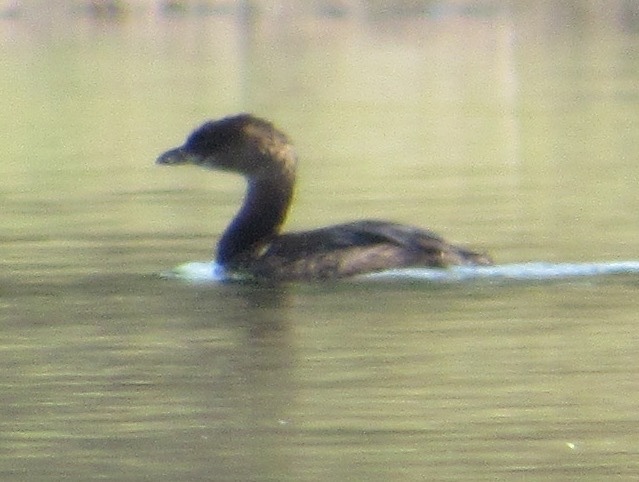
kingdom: Animalia
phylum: Chordata
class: Aves
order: Podicipediformes
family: Podicipedidae
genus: Podilymbus
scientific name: Podilymbus podiceps
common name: Pied-billed grebe
